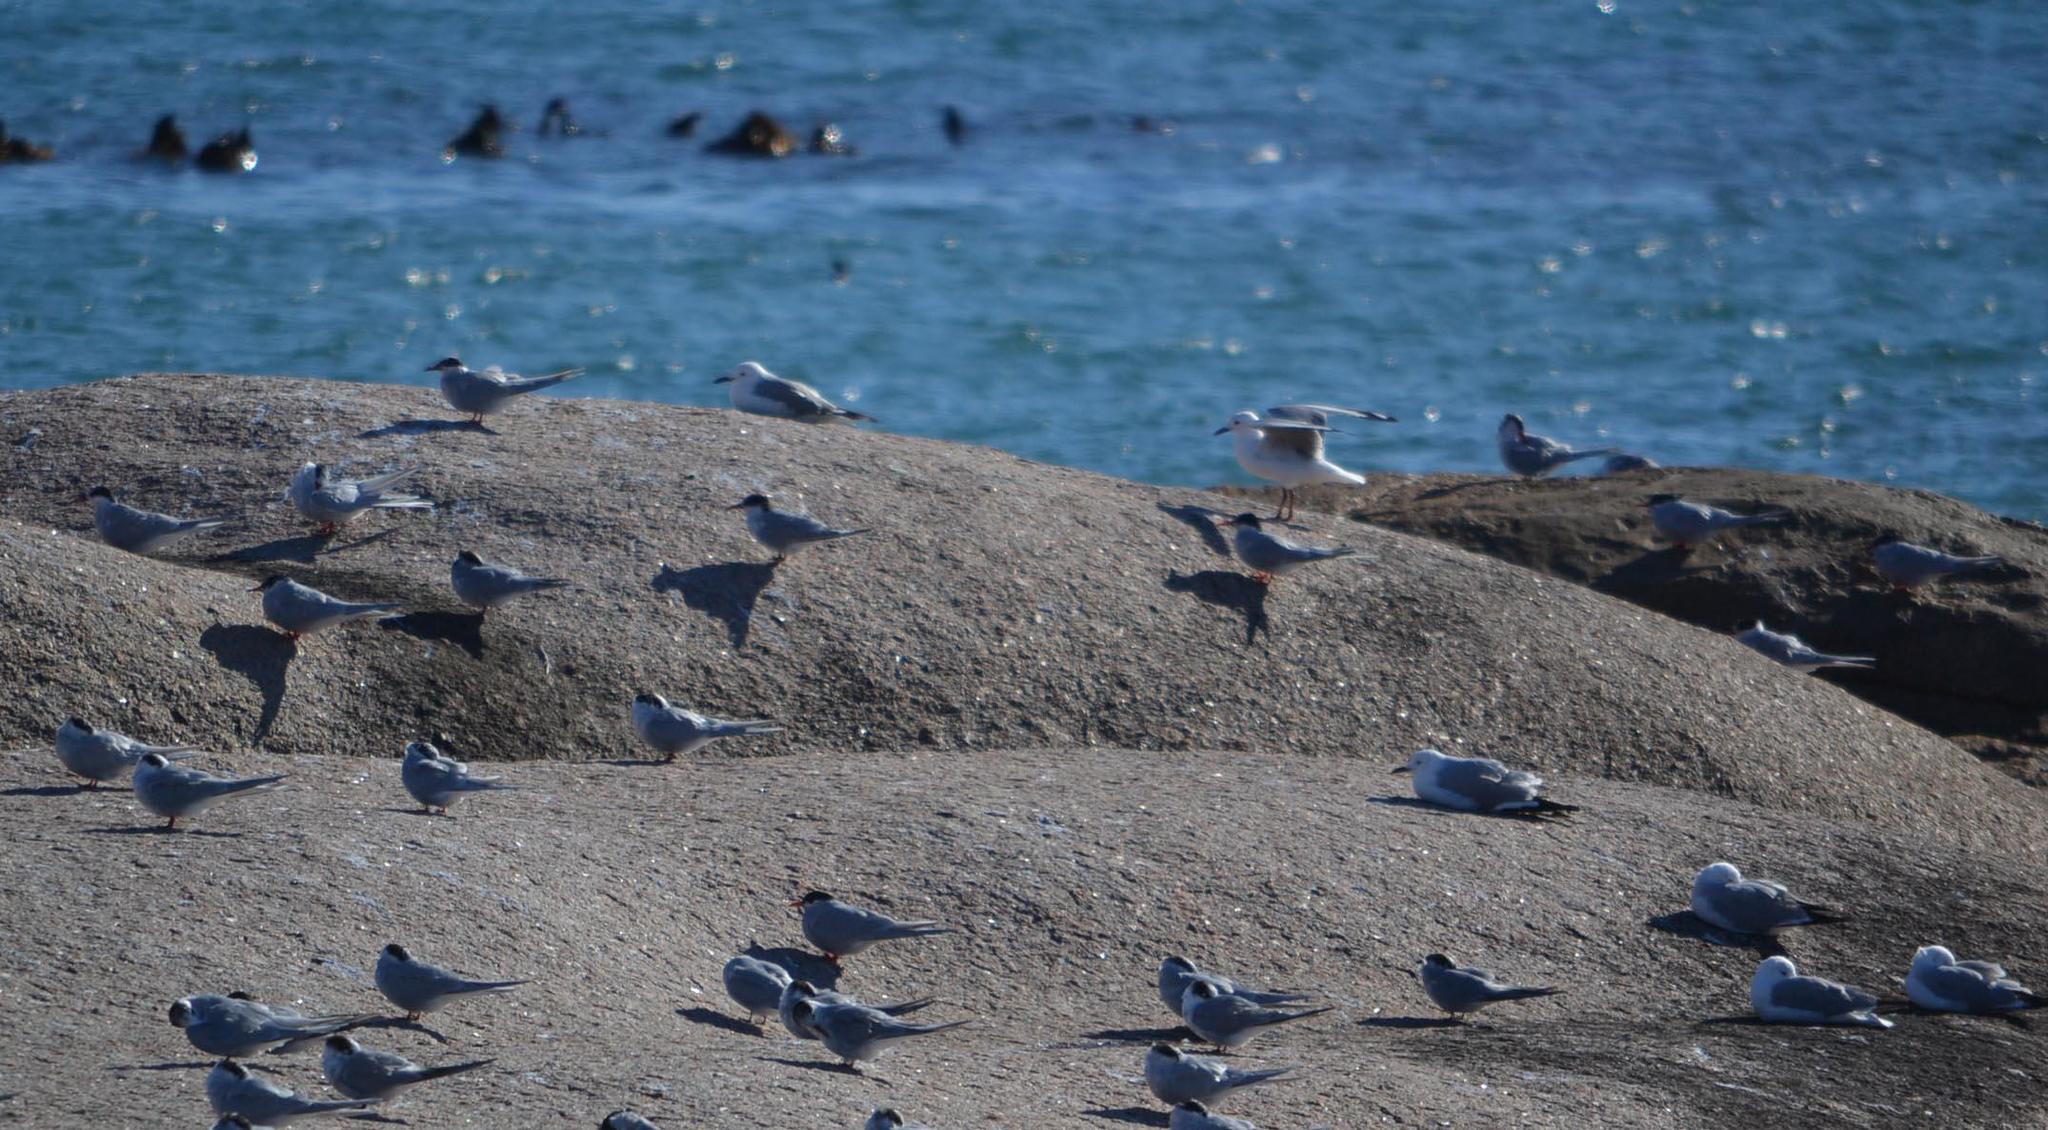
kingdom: Animalia
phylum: Chordata
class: Aves
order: Charadriiformes
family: Laridae
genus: Sterna
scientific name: Sterna vittata
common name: Antarctic tern
